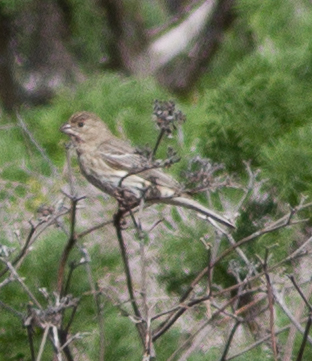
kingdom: Animalia
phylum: Chordata
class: Aves
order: Passeriformes
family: Fringillidae
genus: Haemorhous
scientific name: Haemorhous mexicanus
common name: House finch
